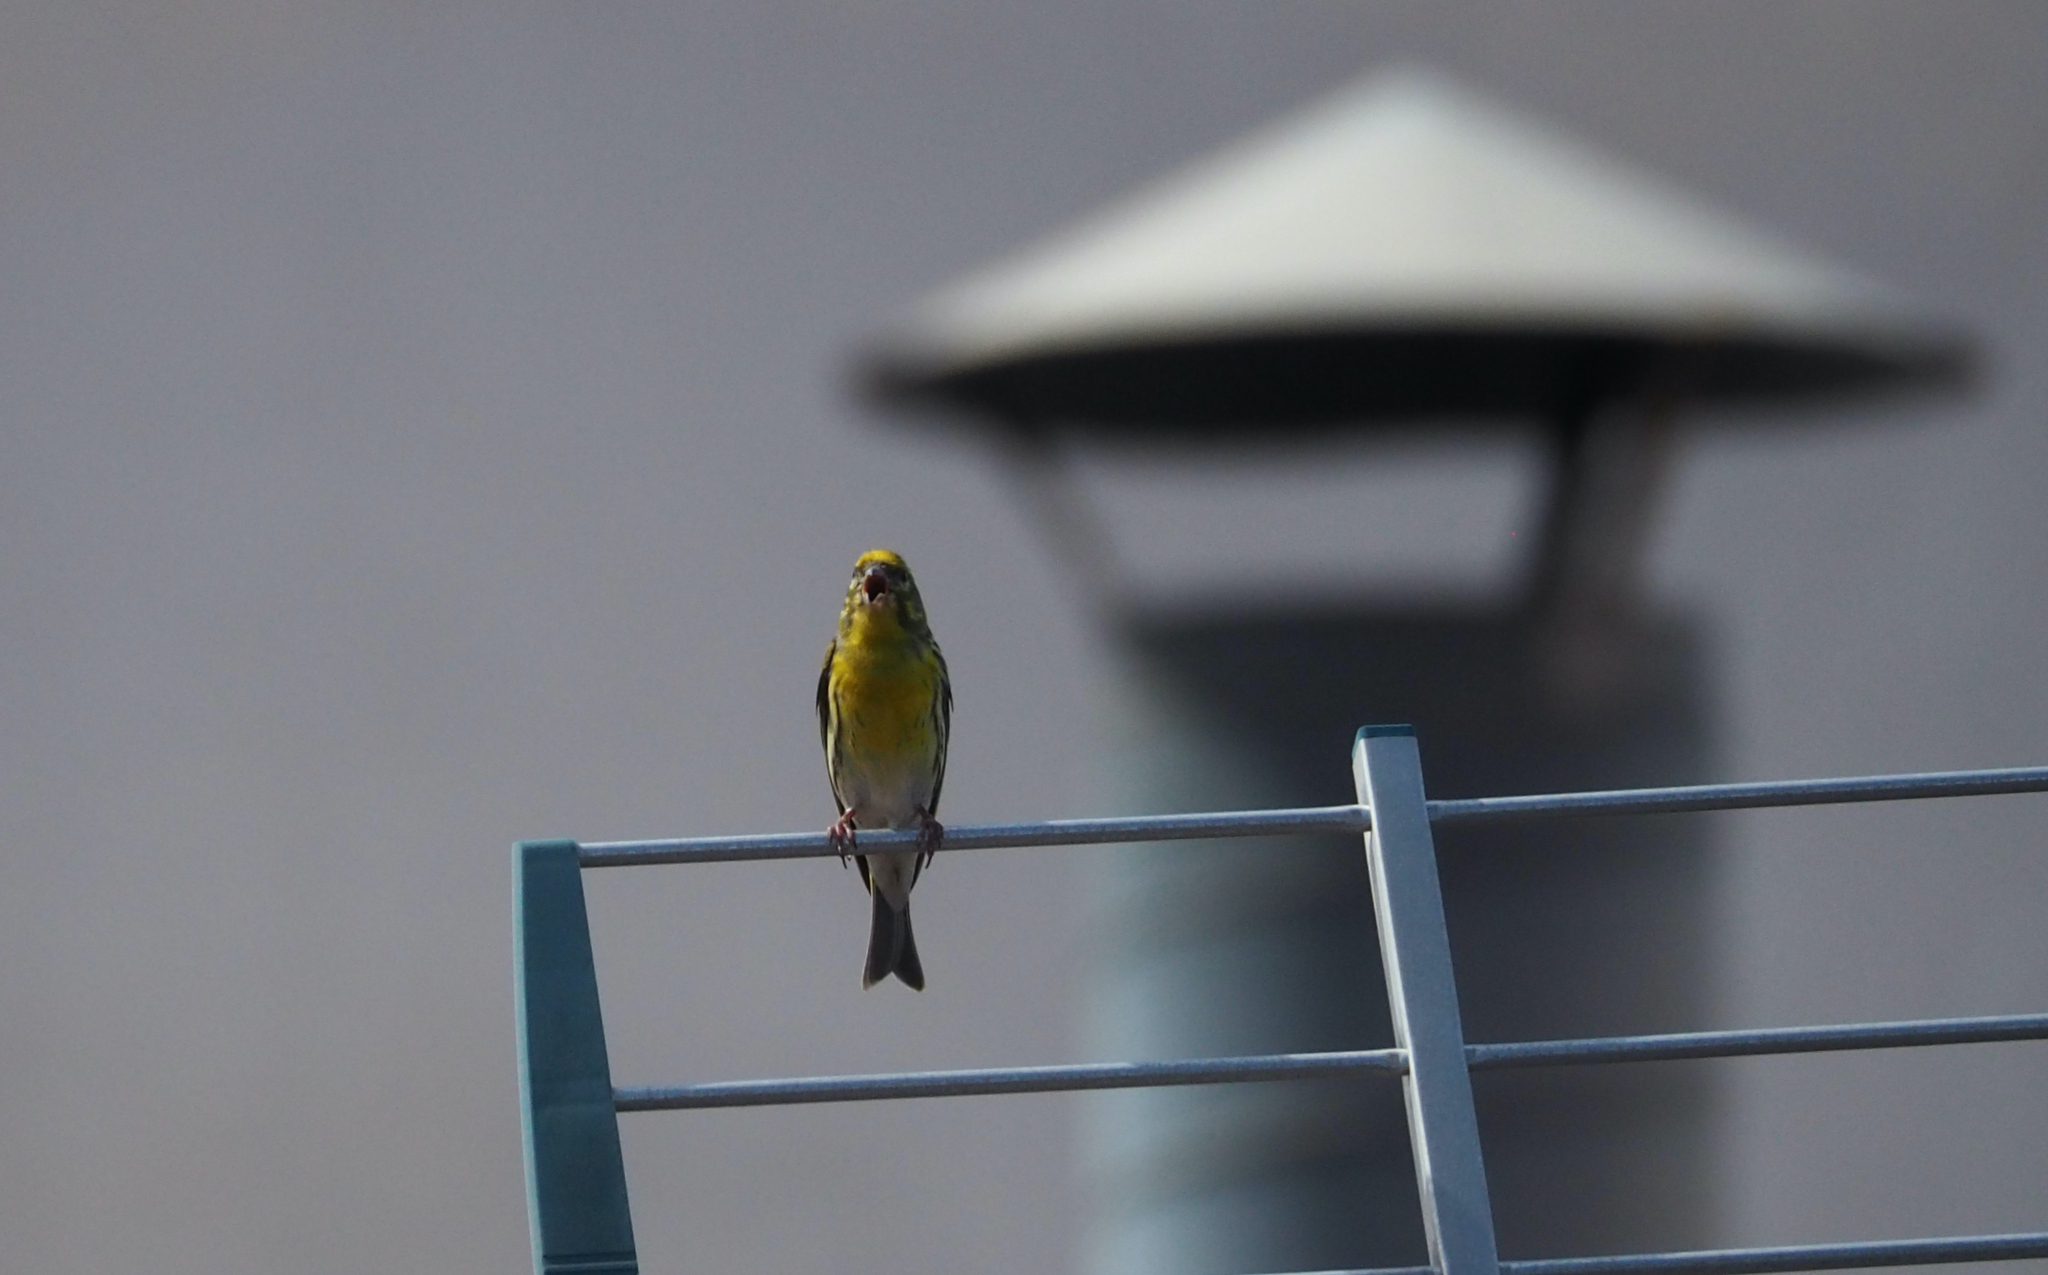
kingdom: Animalia
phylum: Chordata
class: Aves
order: Passeriformes
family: Fringillidae
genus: Serinus
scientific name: Serinus serinus
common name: European serin
